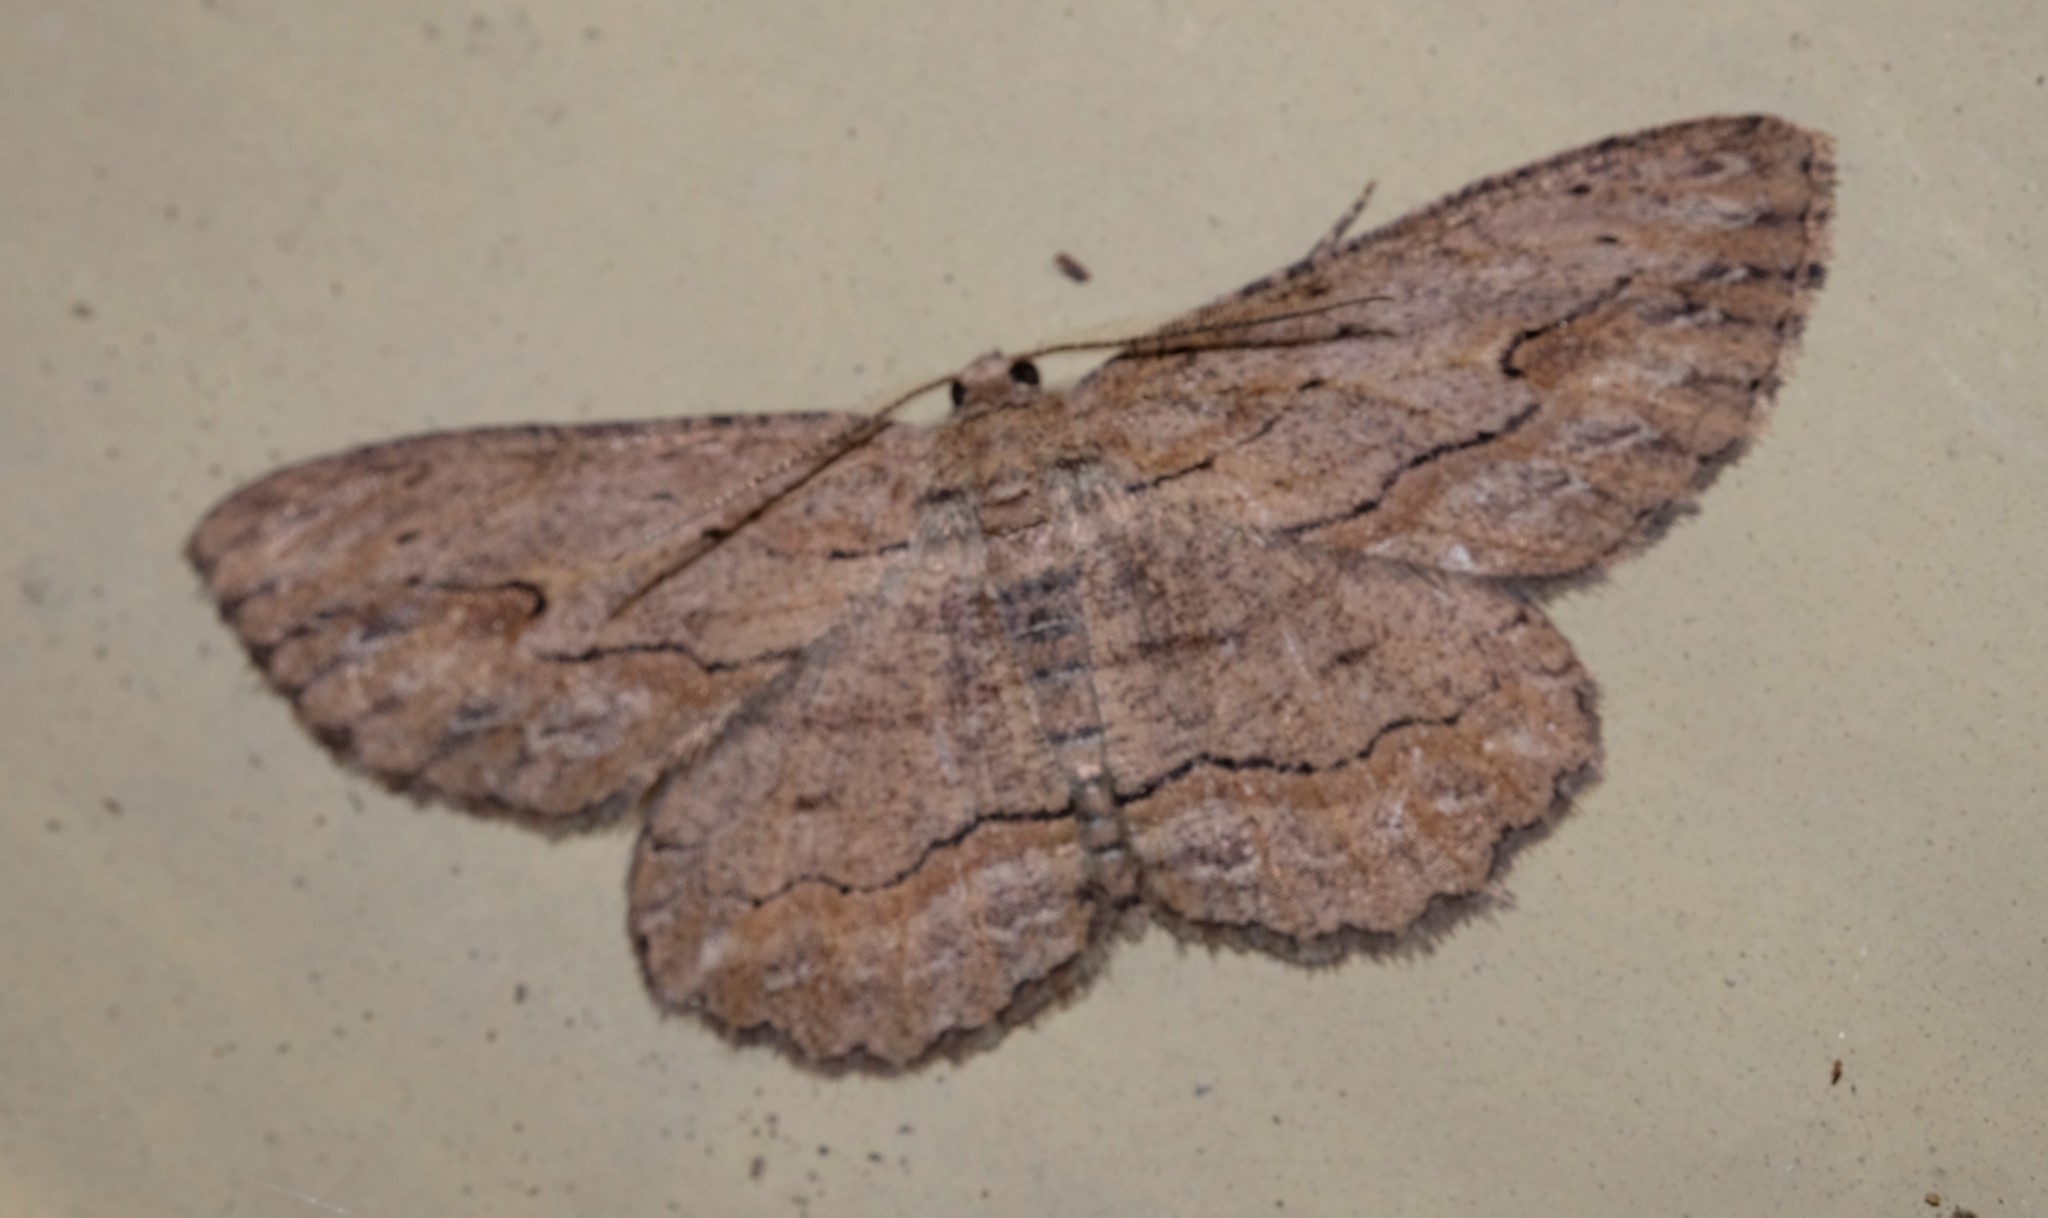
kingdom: Animalia
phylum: Arthropoda
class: Insecta
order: Lepidoptera
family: Geometridae
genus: Ectropis
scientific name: Ectropis excursaria
